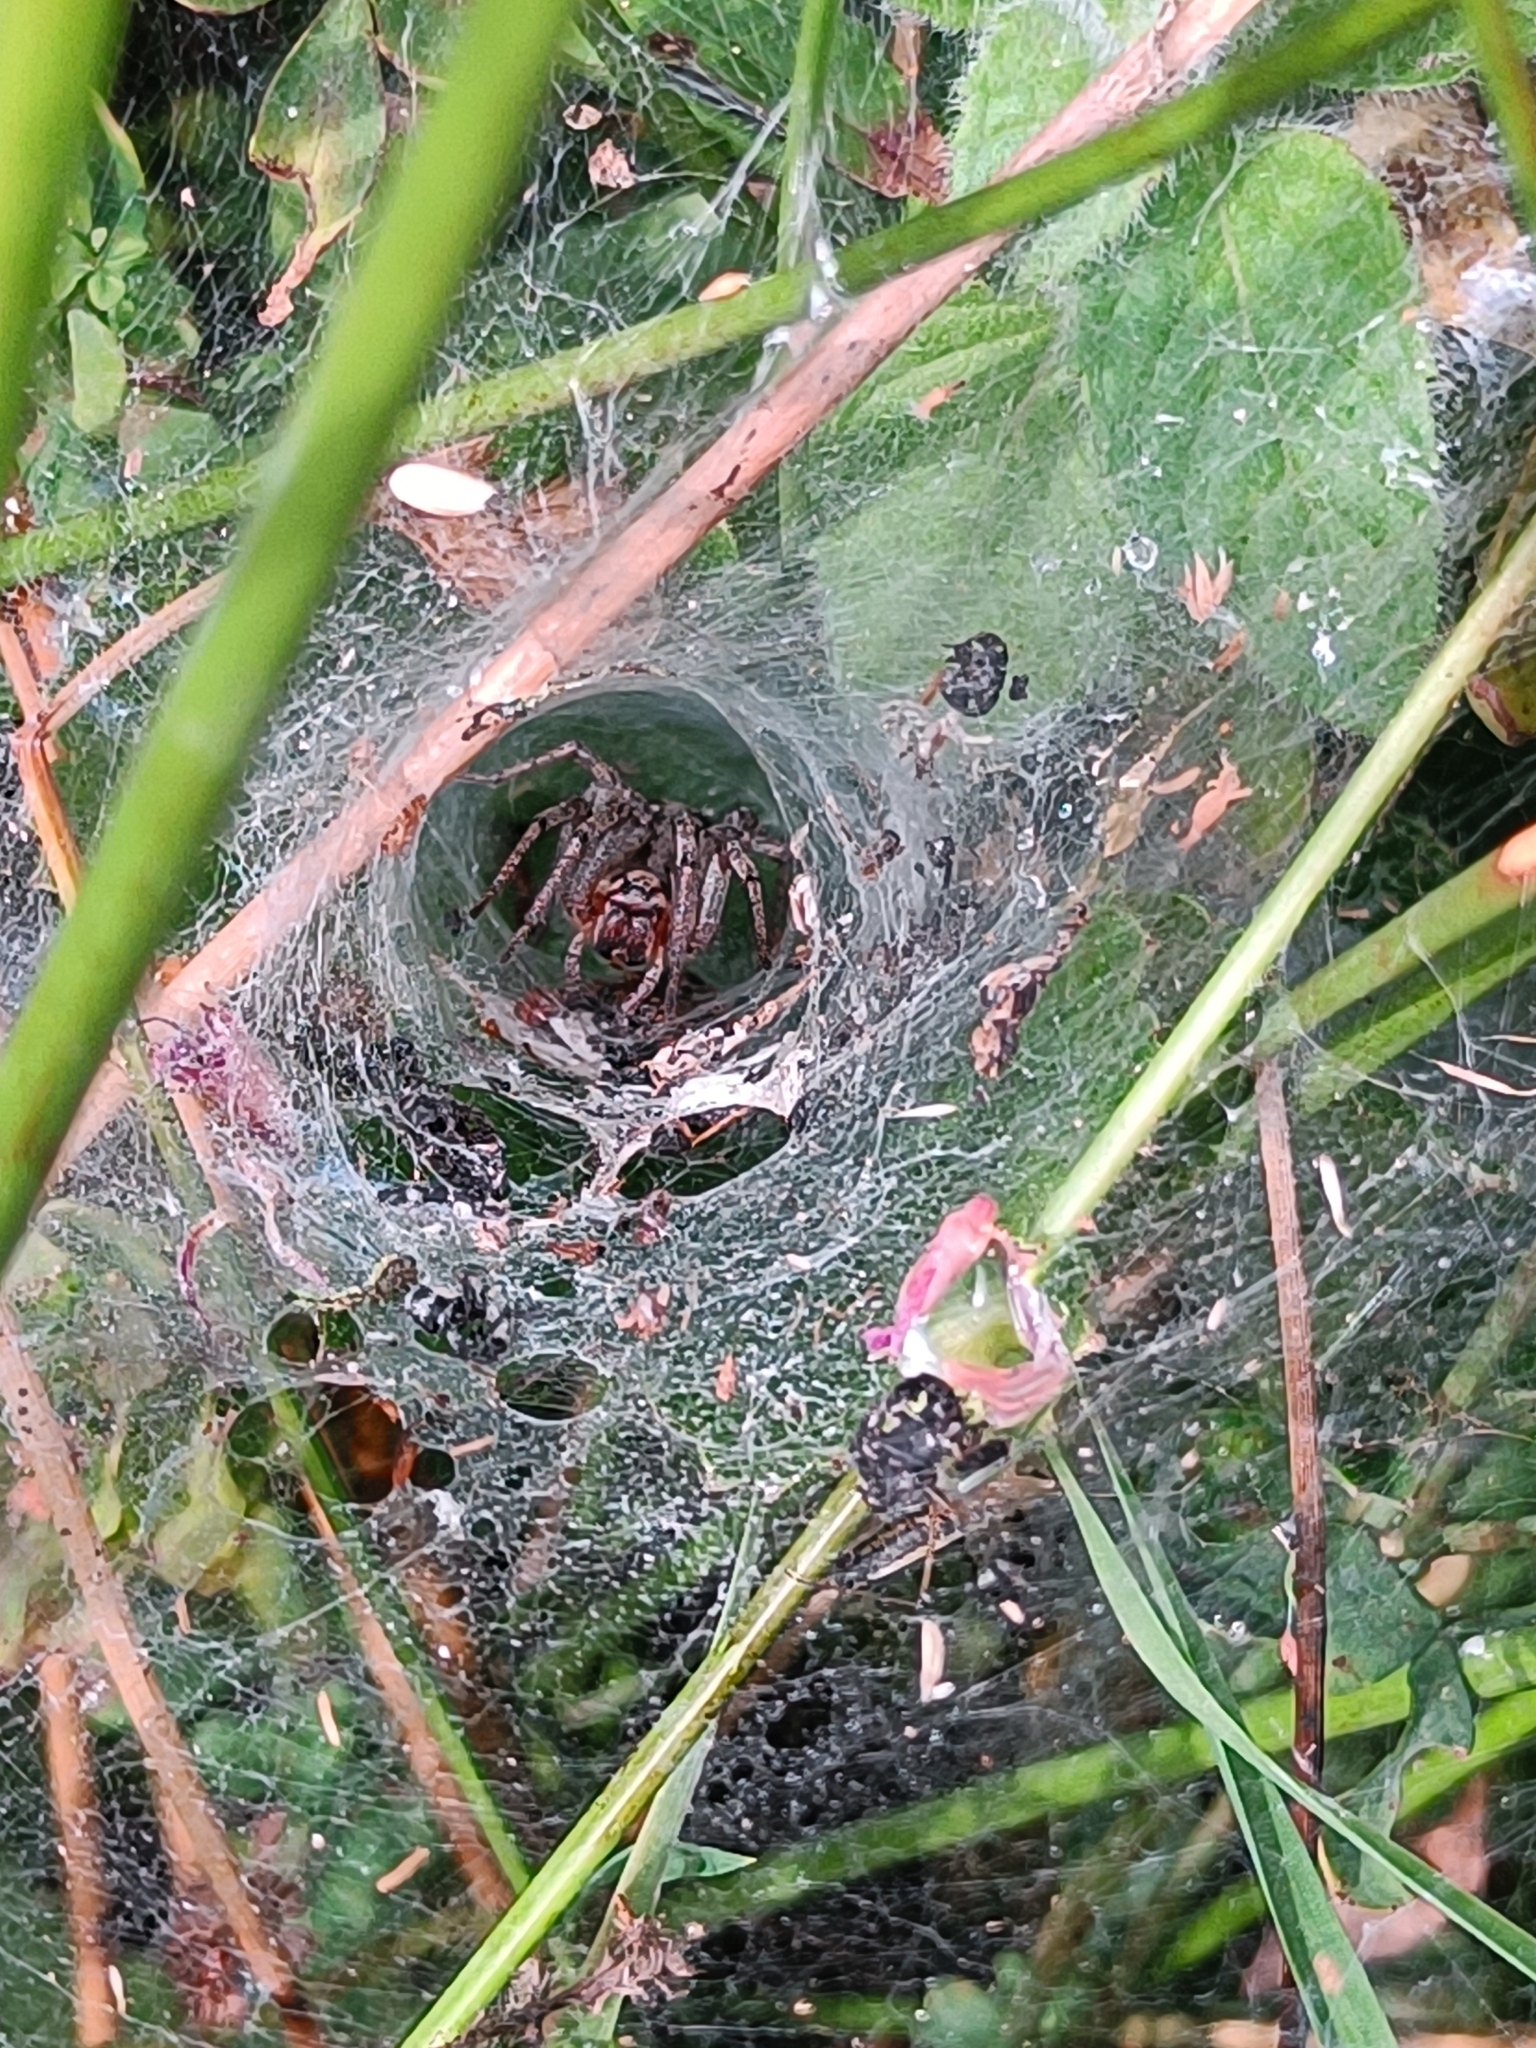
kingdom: Animalia
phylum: Arthropoda
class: Arachnida
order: Araneae
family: Agelenidae
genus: Agelena
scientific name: Agelena labyrinthica
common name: Labyrinth spider
